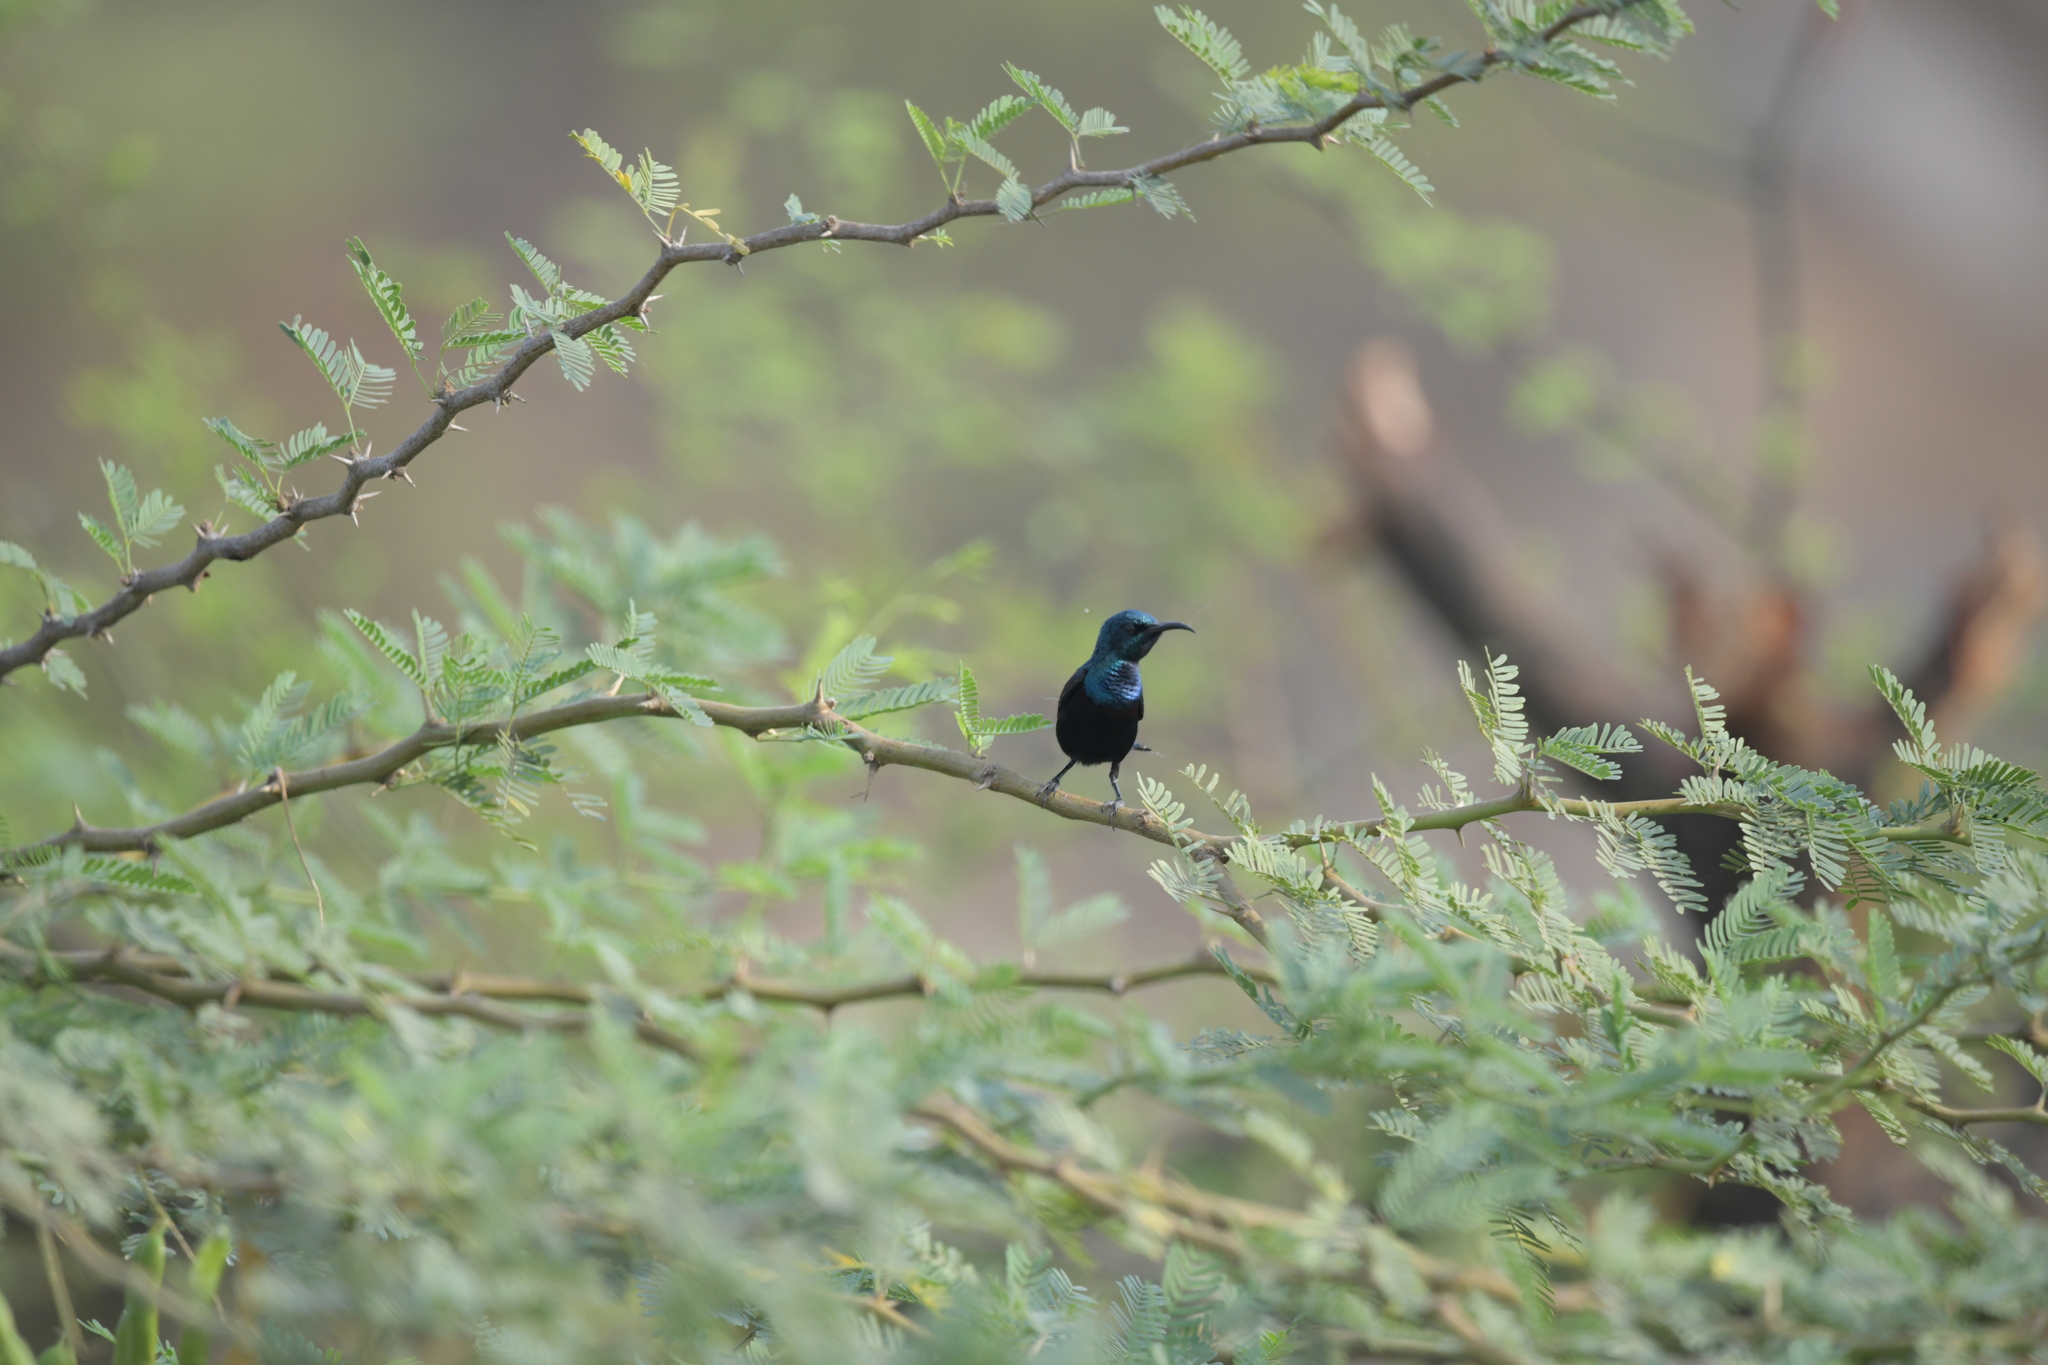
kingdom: Animalia
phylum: Chordata
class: Aves
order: Passeriformes
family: Nectariniidae
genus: Cinnyris
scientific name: Cinnyris asiaticus
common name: Purple sunbird
